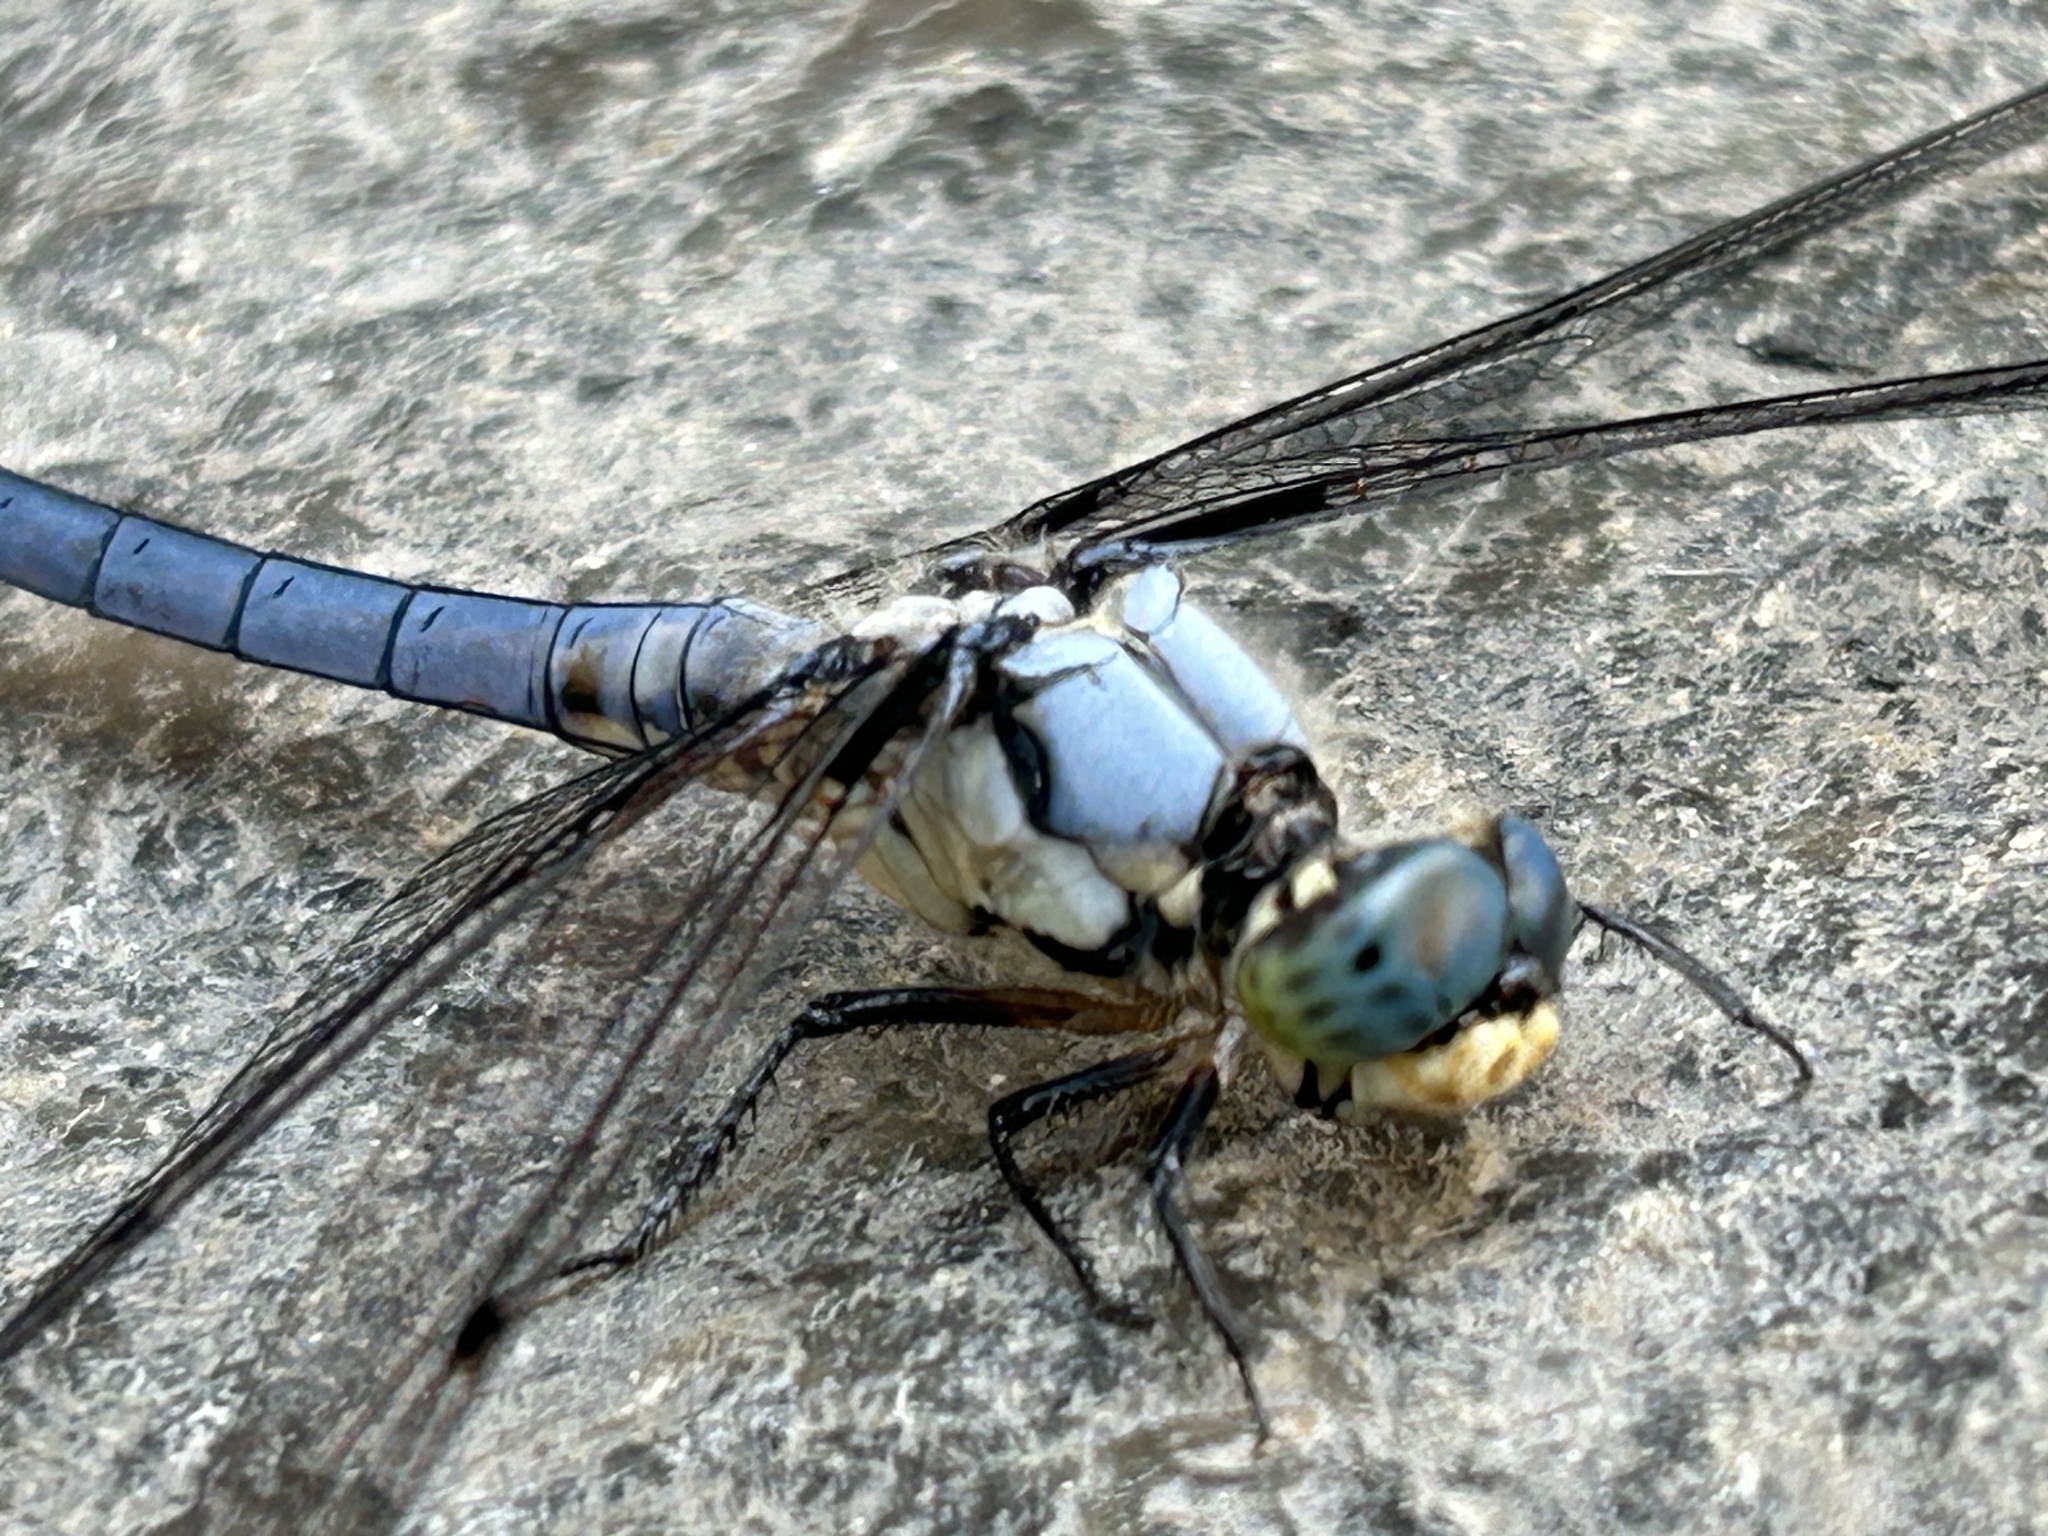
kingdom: Animalia
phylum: Arthropoda
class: Insecta
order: Odonata
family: Libellulidae
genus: Libellula
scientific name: Libellula vibrans
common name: Great blue skimmer
